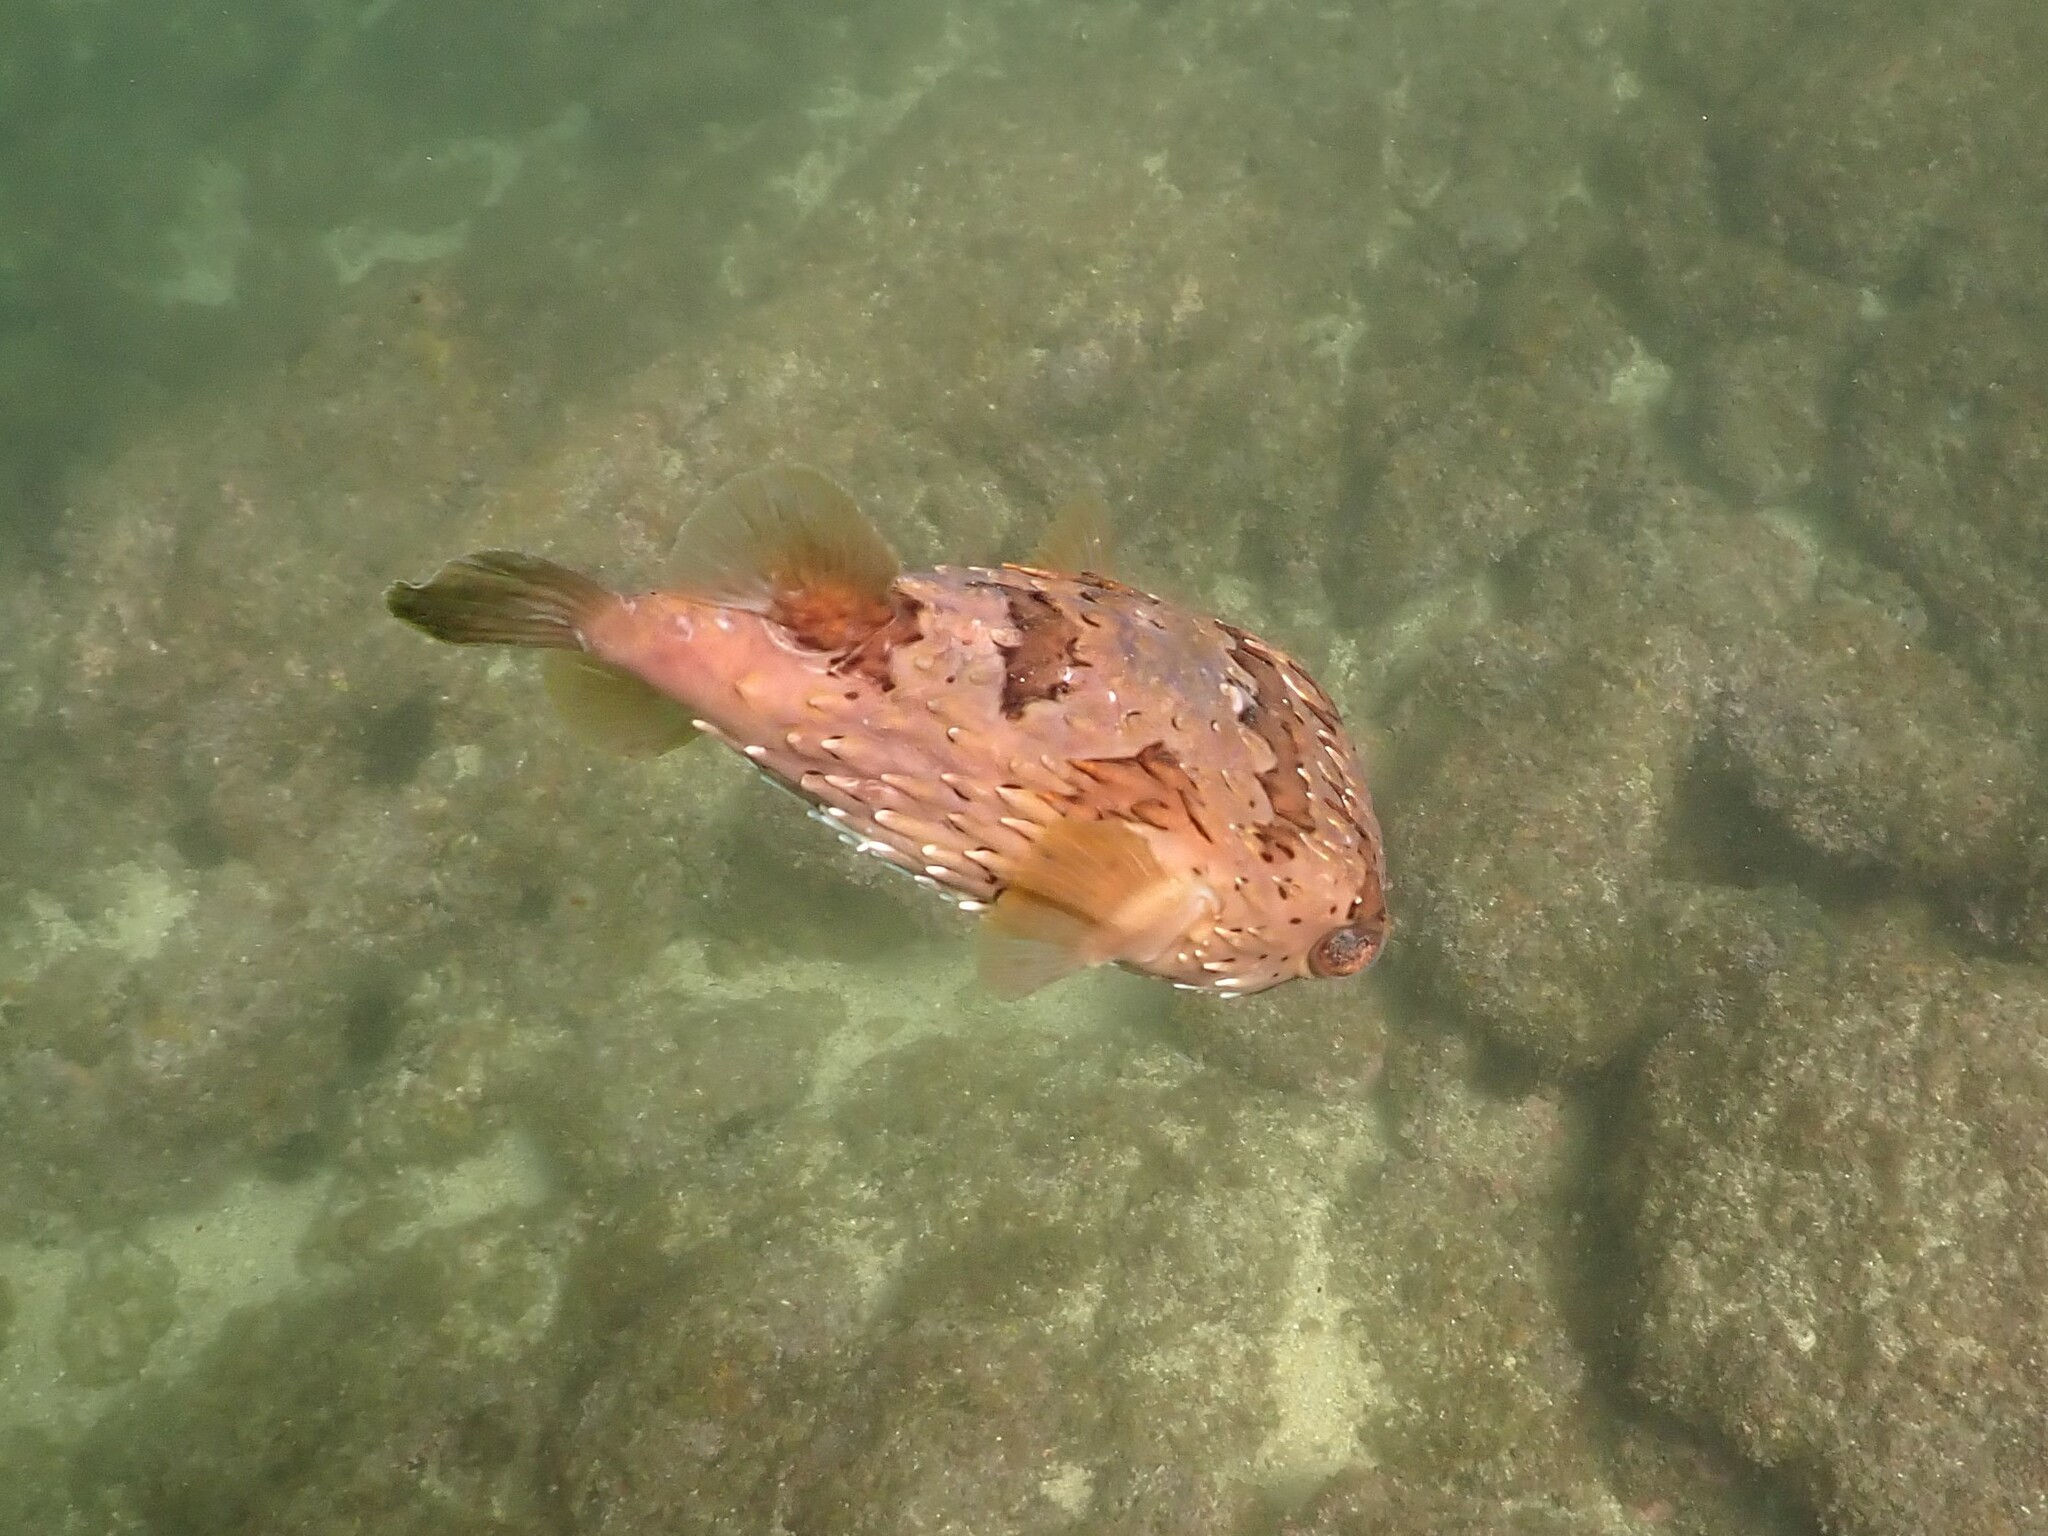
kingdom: Animalia
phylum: Chordata
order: Tetraodontiformes
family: Diodontidae
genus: Diodon
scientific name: Diodon holocanthus
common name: Balloonfish
